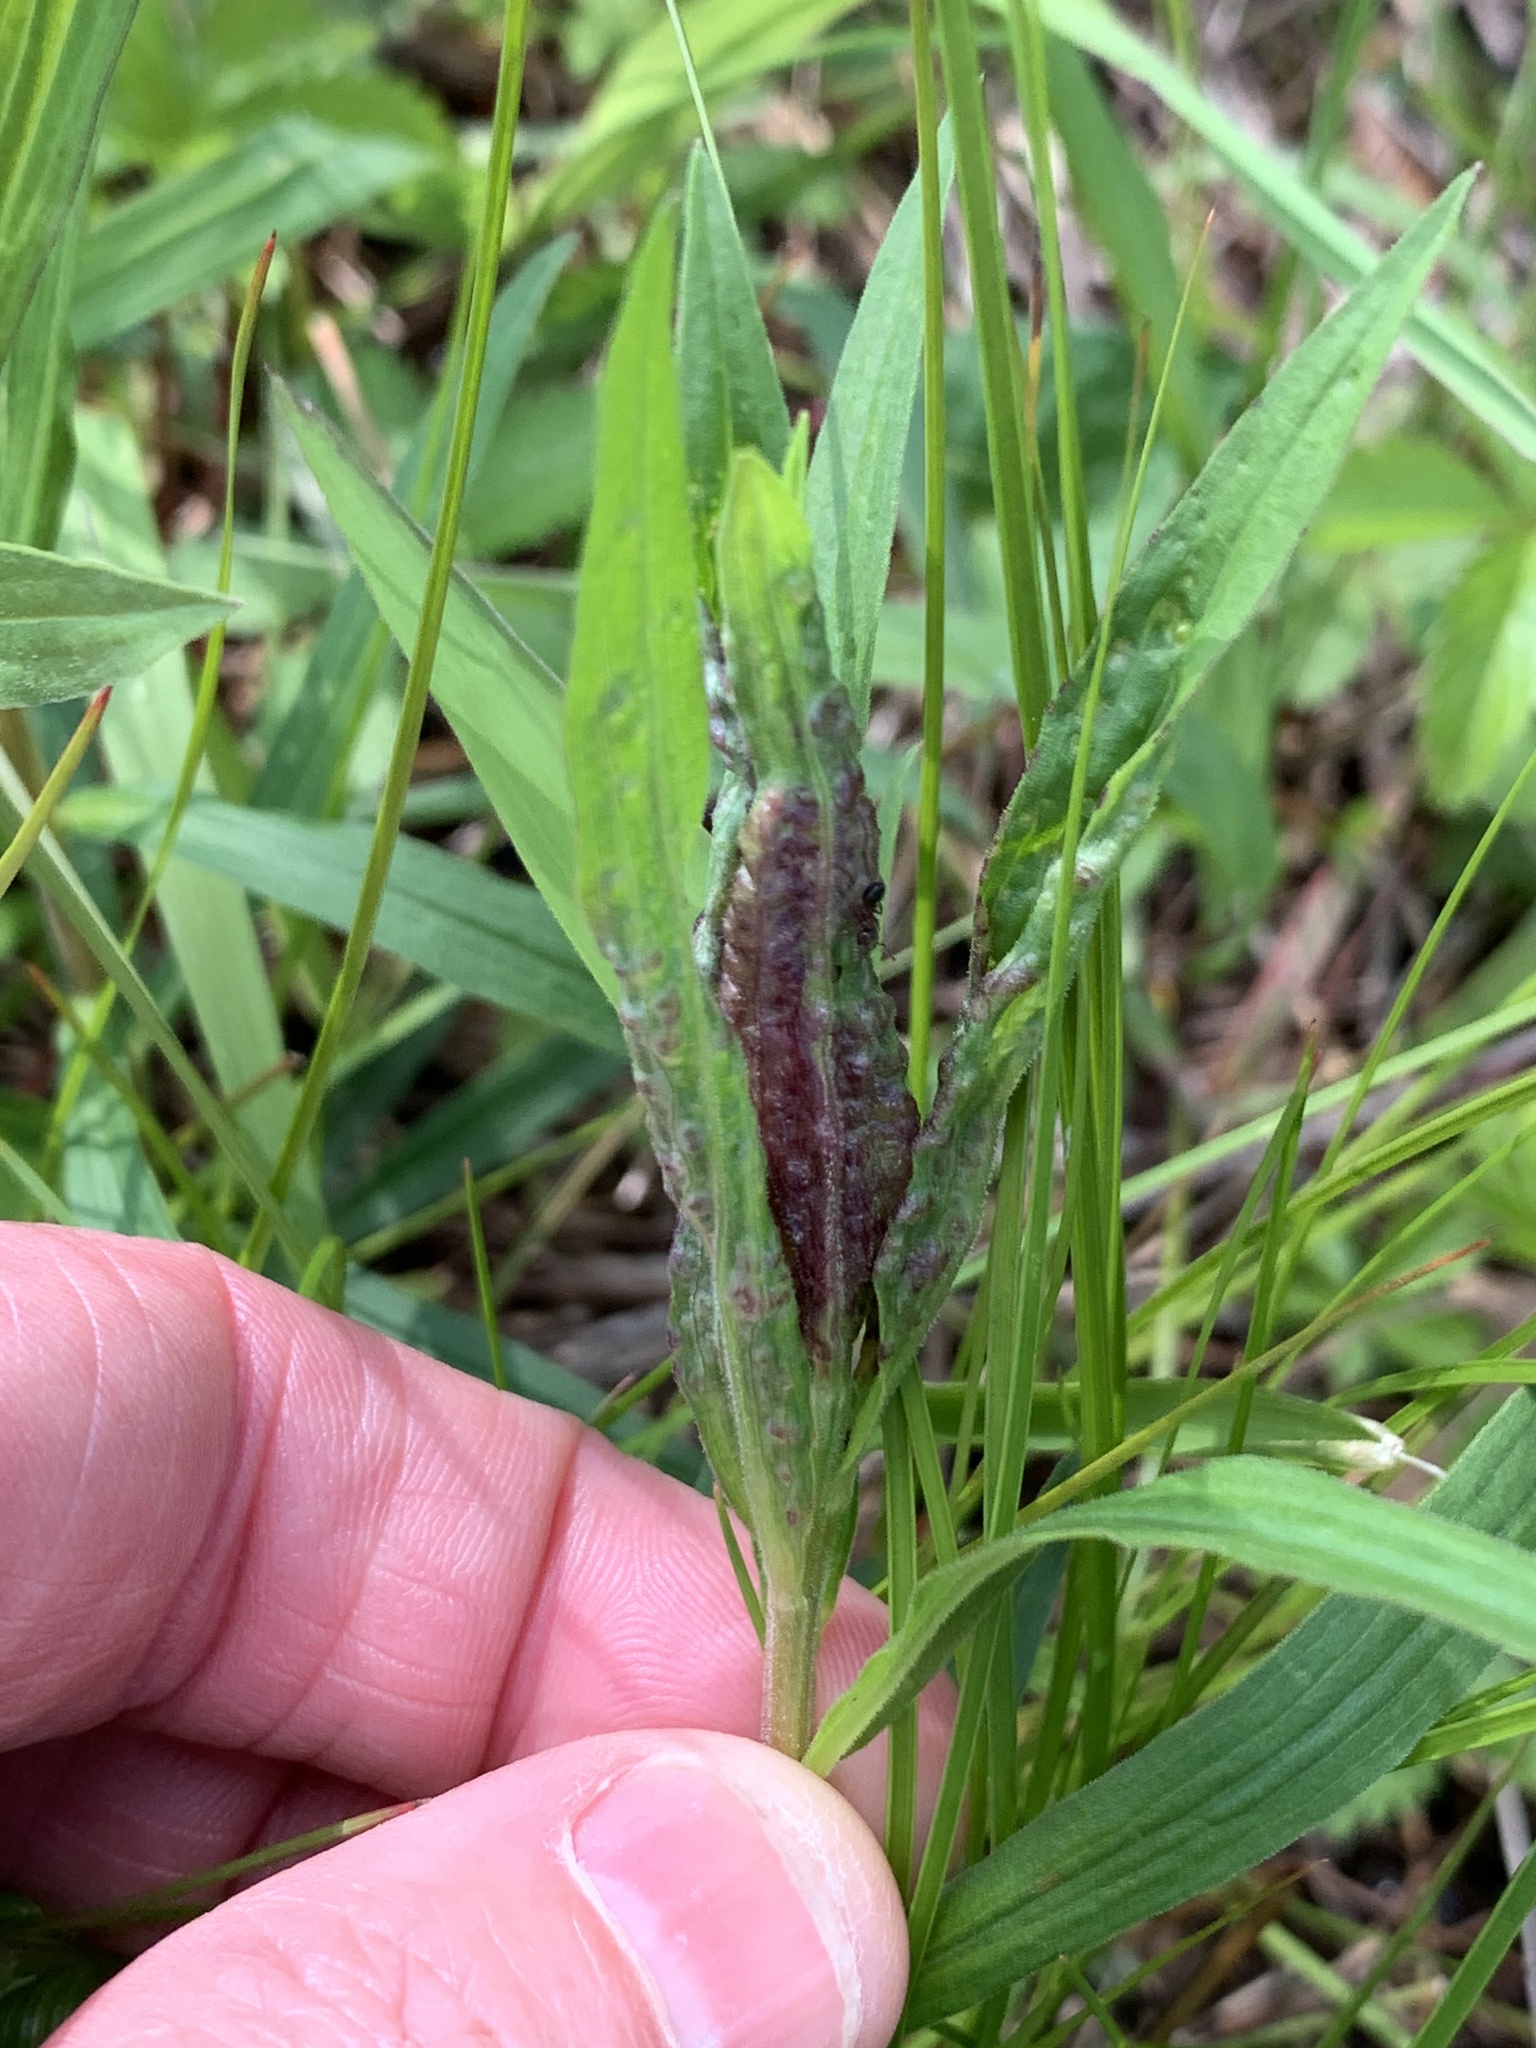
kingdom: Animalia
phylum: Arthropoda
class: Insecta
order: Diptera
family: Cecidomyiidae
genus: Dasineura
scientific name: Dasineura carbonaria
